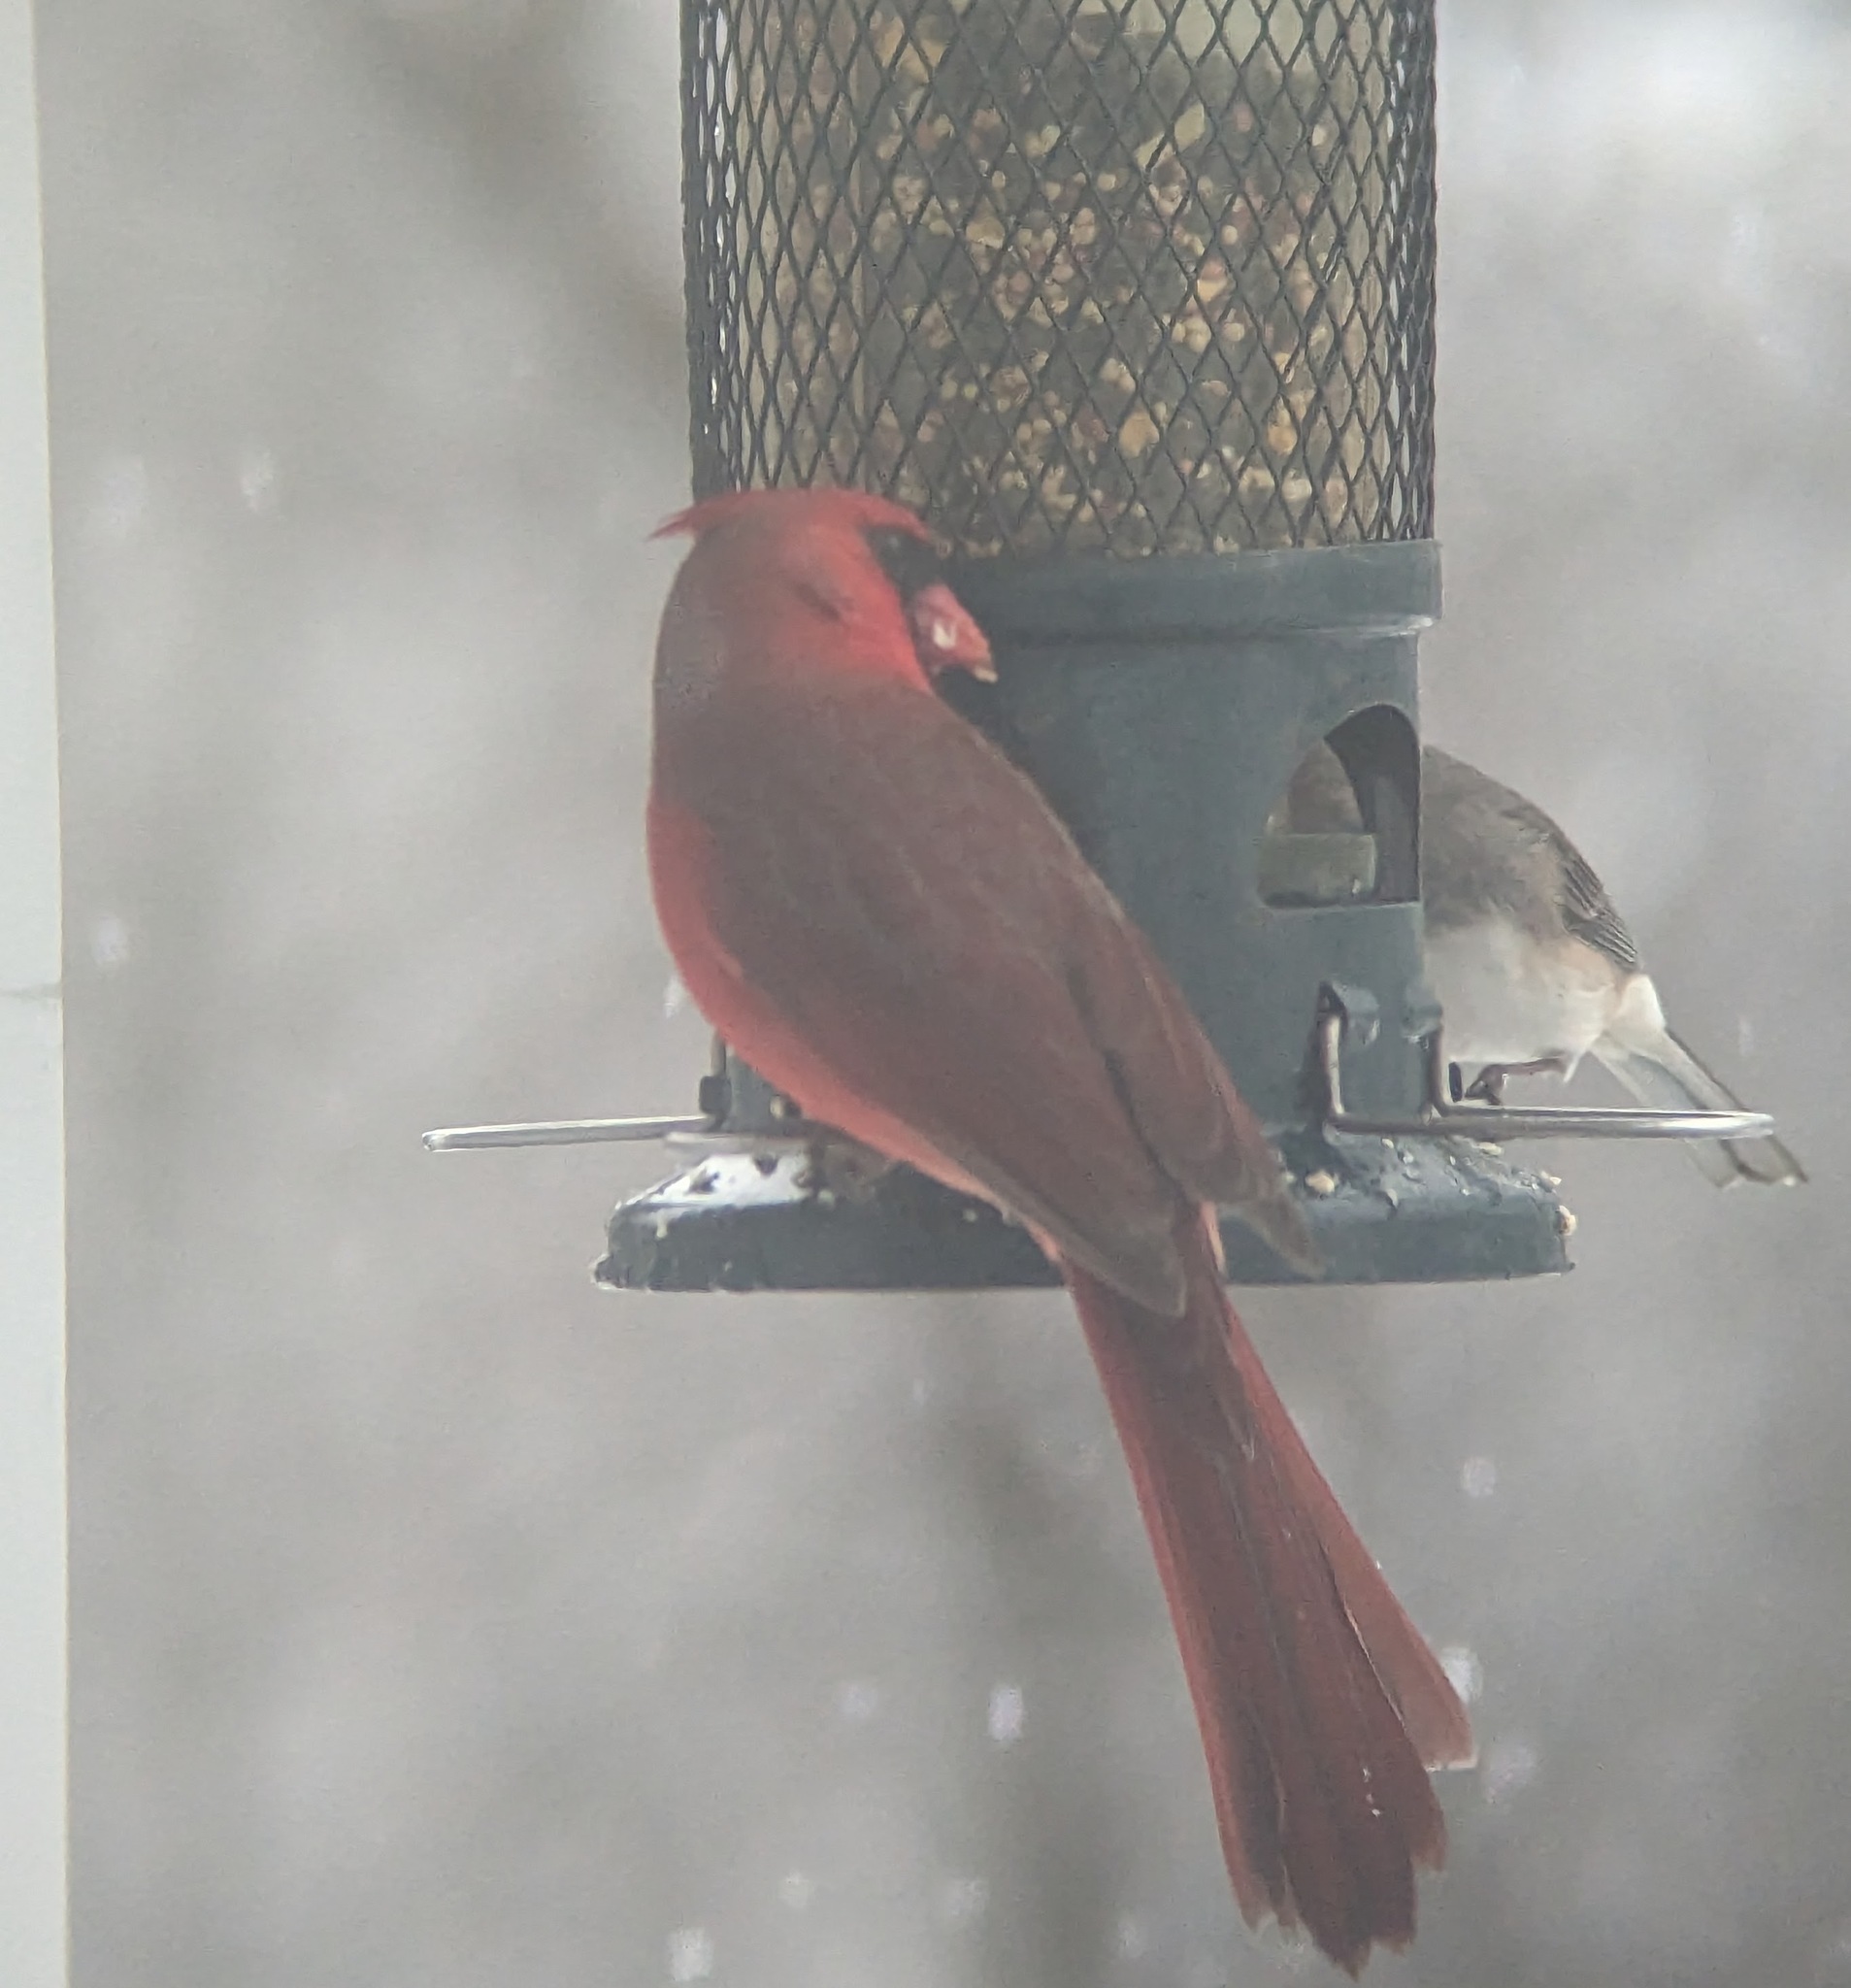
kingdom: Animalia
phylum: Chordata
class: Aves
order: Passeriformes
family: Cardinalidae
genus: Cardinalis
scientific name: Cardinalis cardinalis
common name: Northern cardinal
